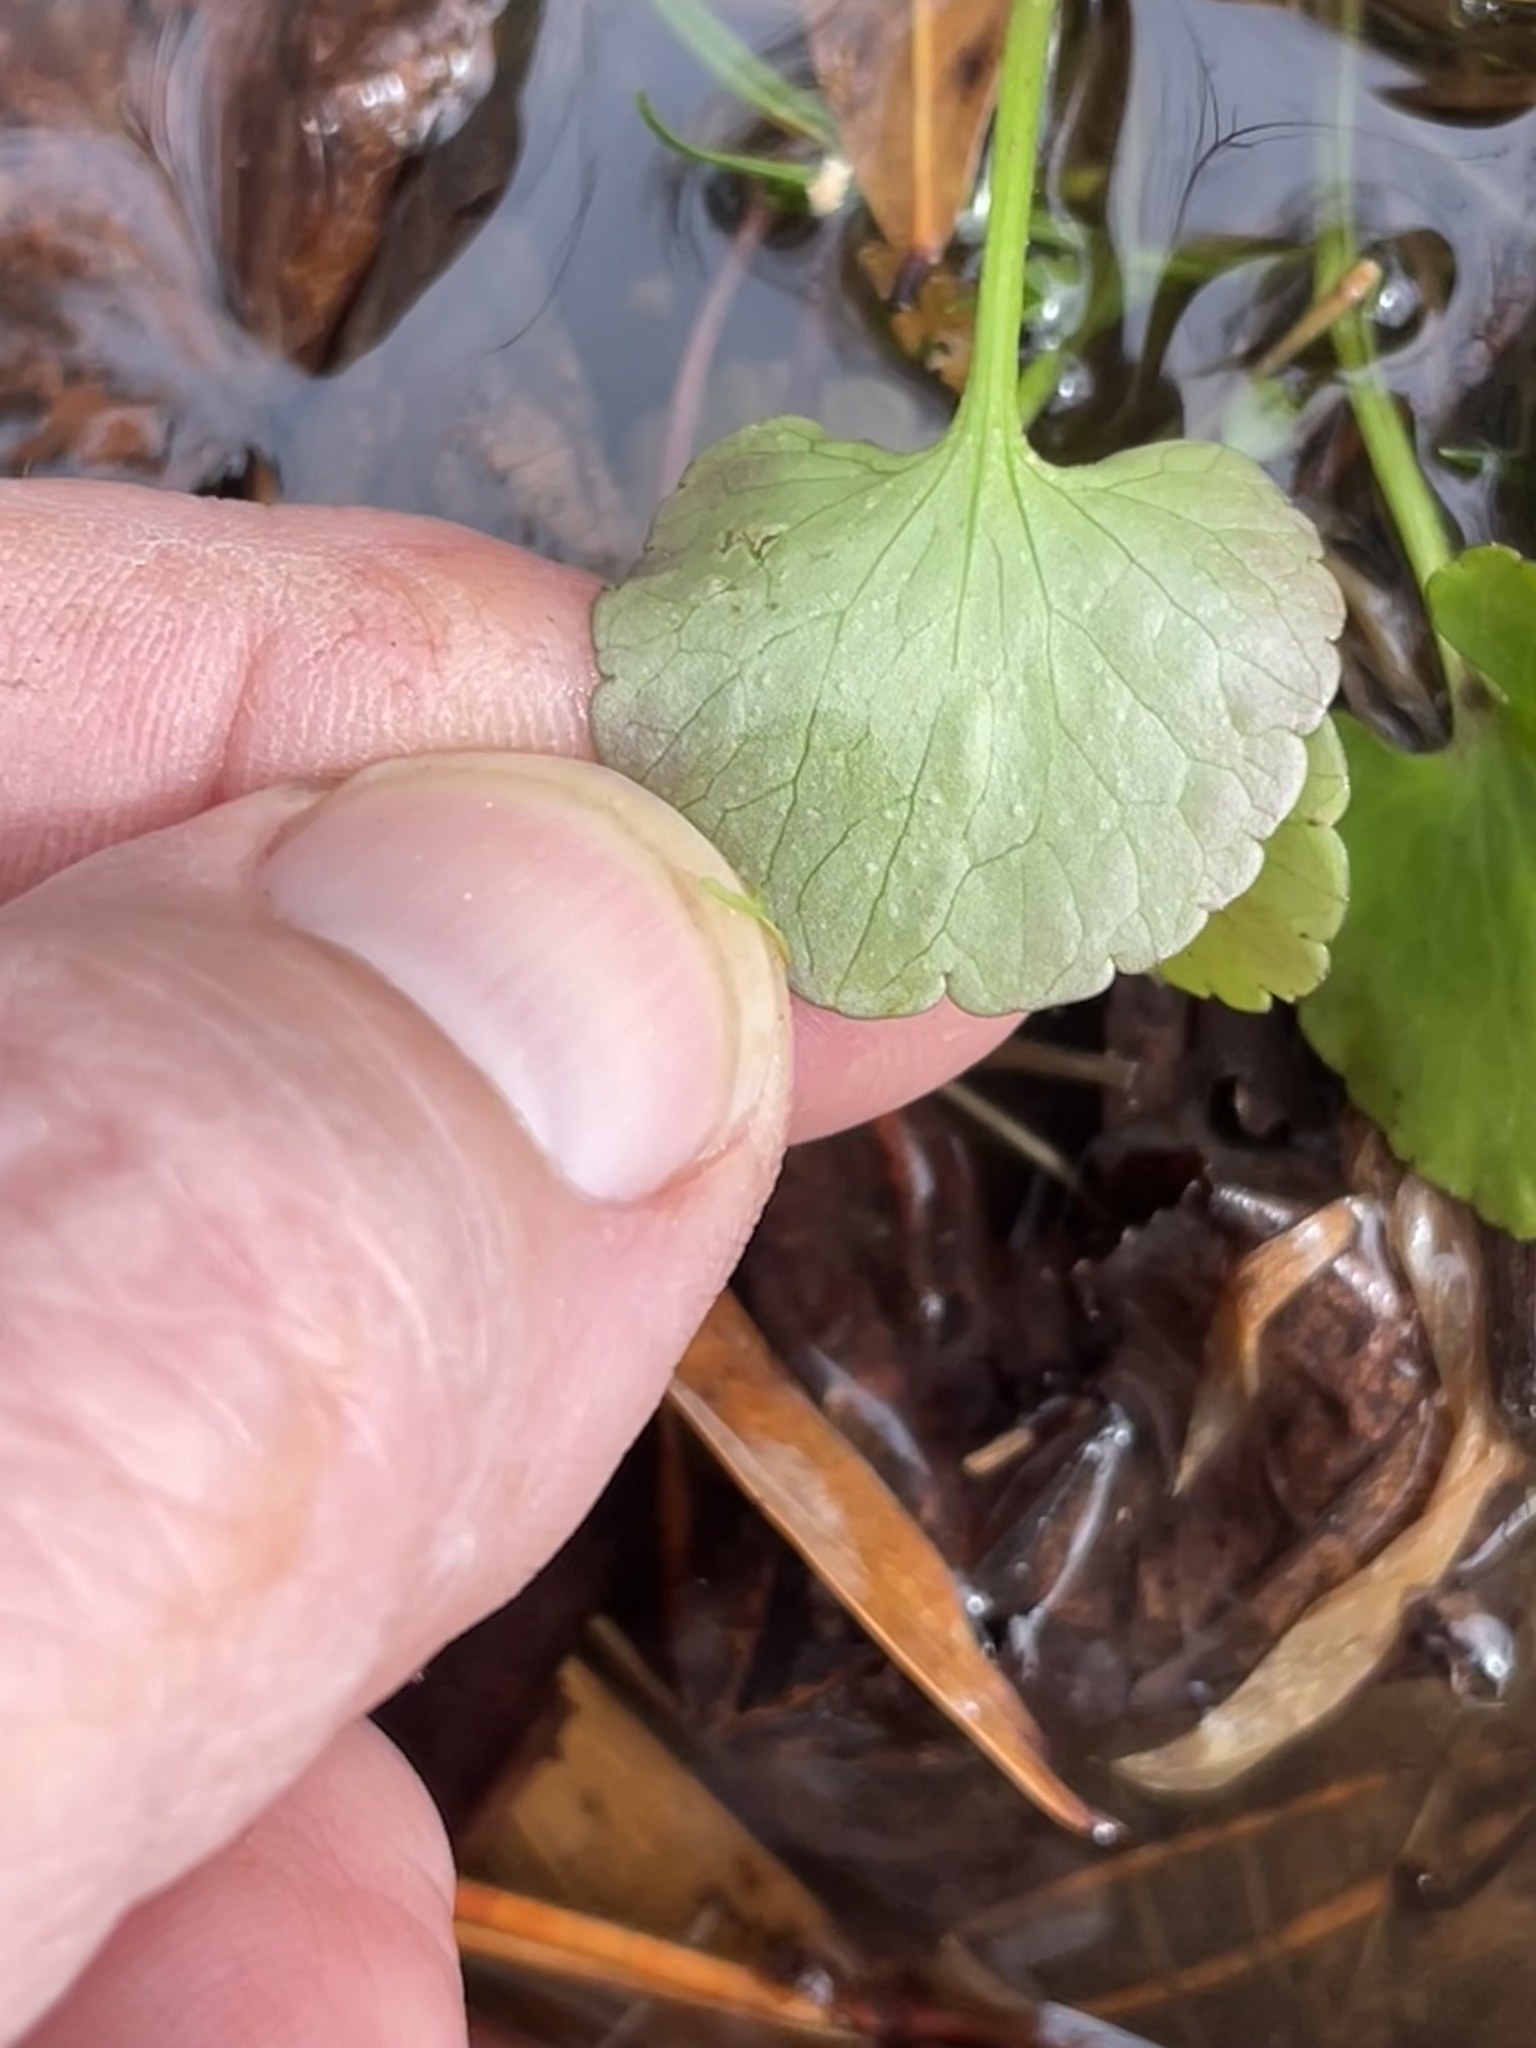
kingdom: Plantae
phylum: Tracheophyta
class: Magnoliopsida
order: Ranunculales
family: Ranunculaceae
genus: Ranunculus
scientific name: Ranunculus abortivus
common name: Early wood buttercup
